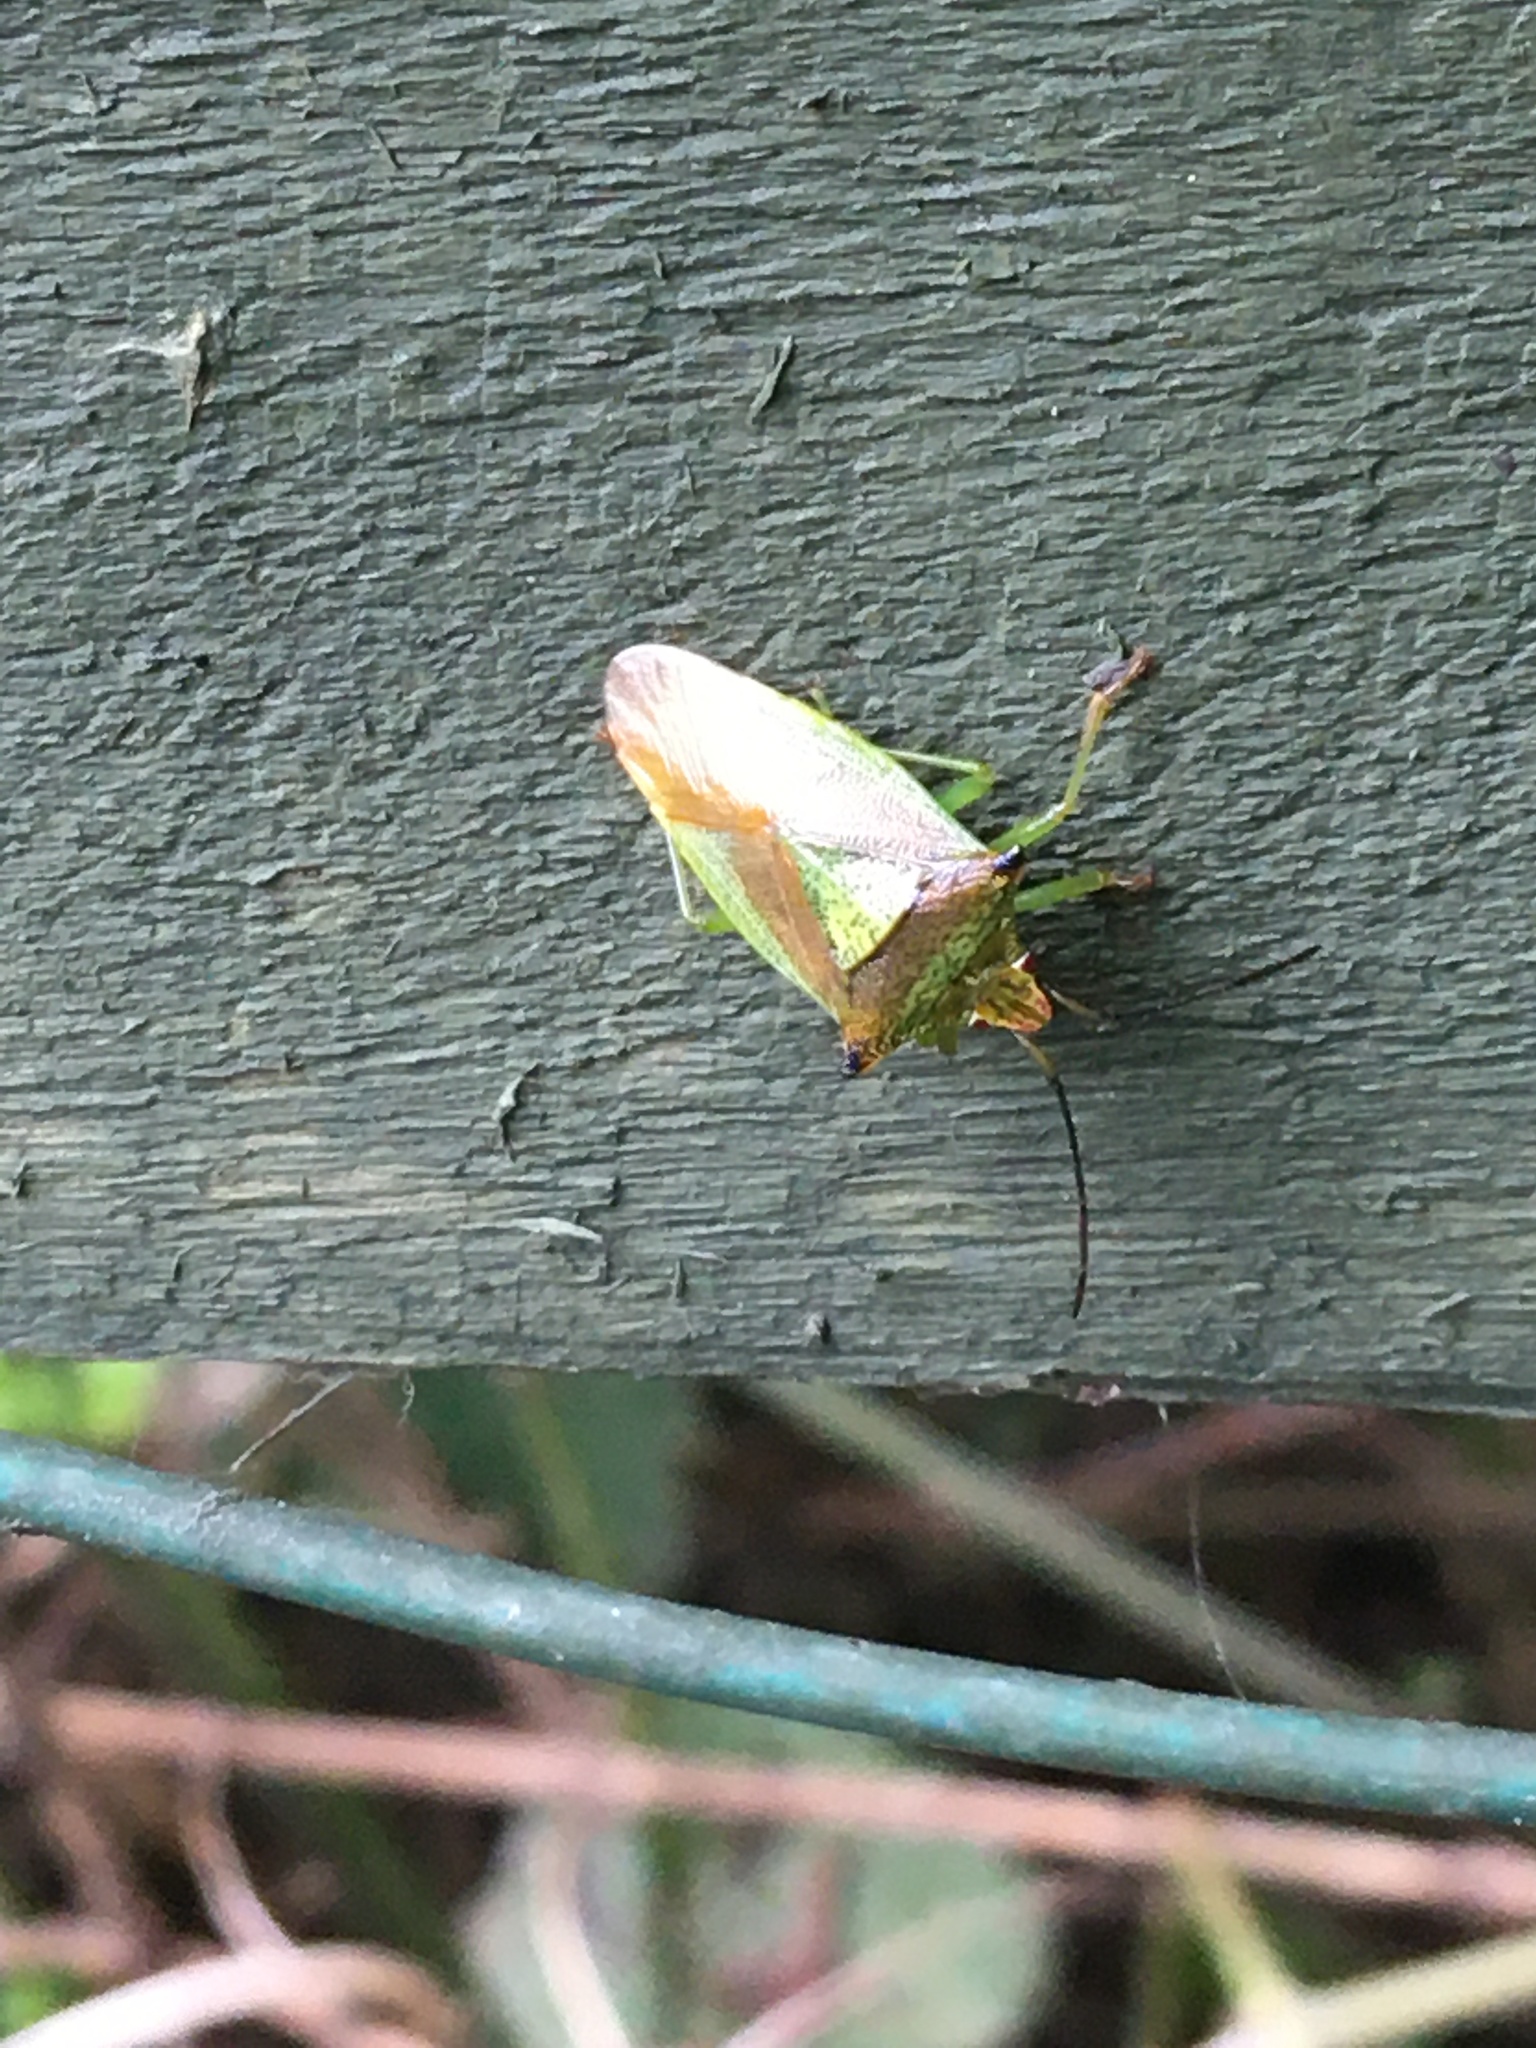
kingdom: Animalia
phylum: Arthropoda
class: Insecta
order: Hemiptera
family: Acanthosomatidae
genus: Acanthosoma
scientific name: Acanthosoma haemorrhoidale
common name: Hawthorn shieldbug
